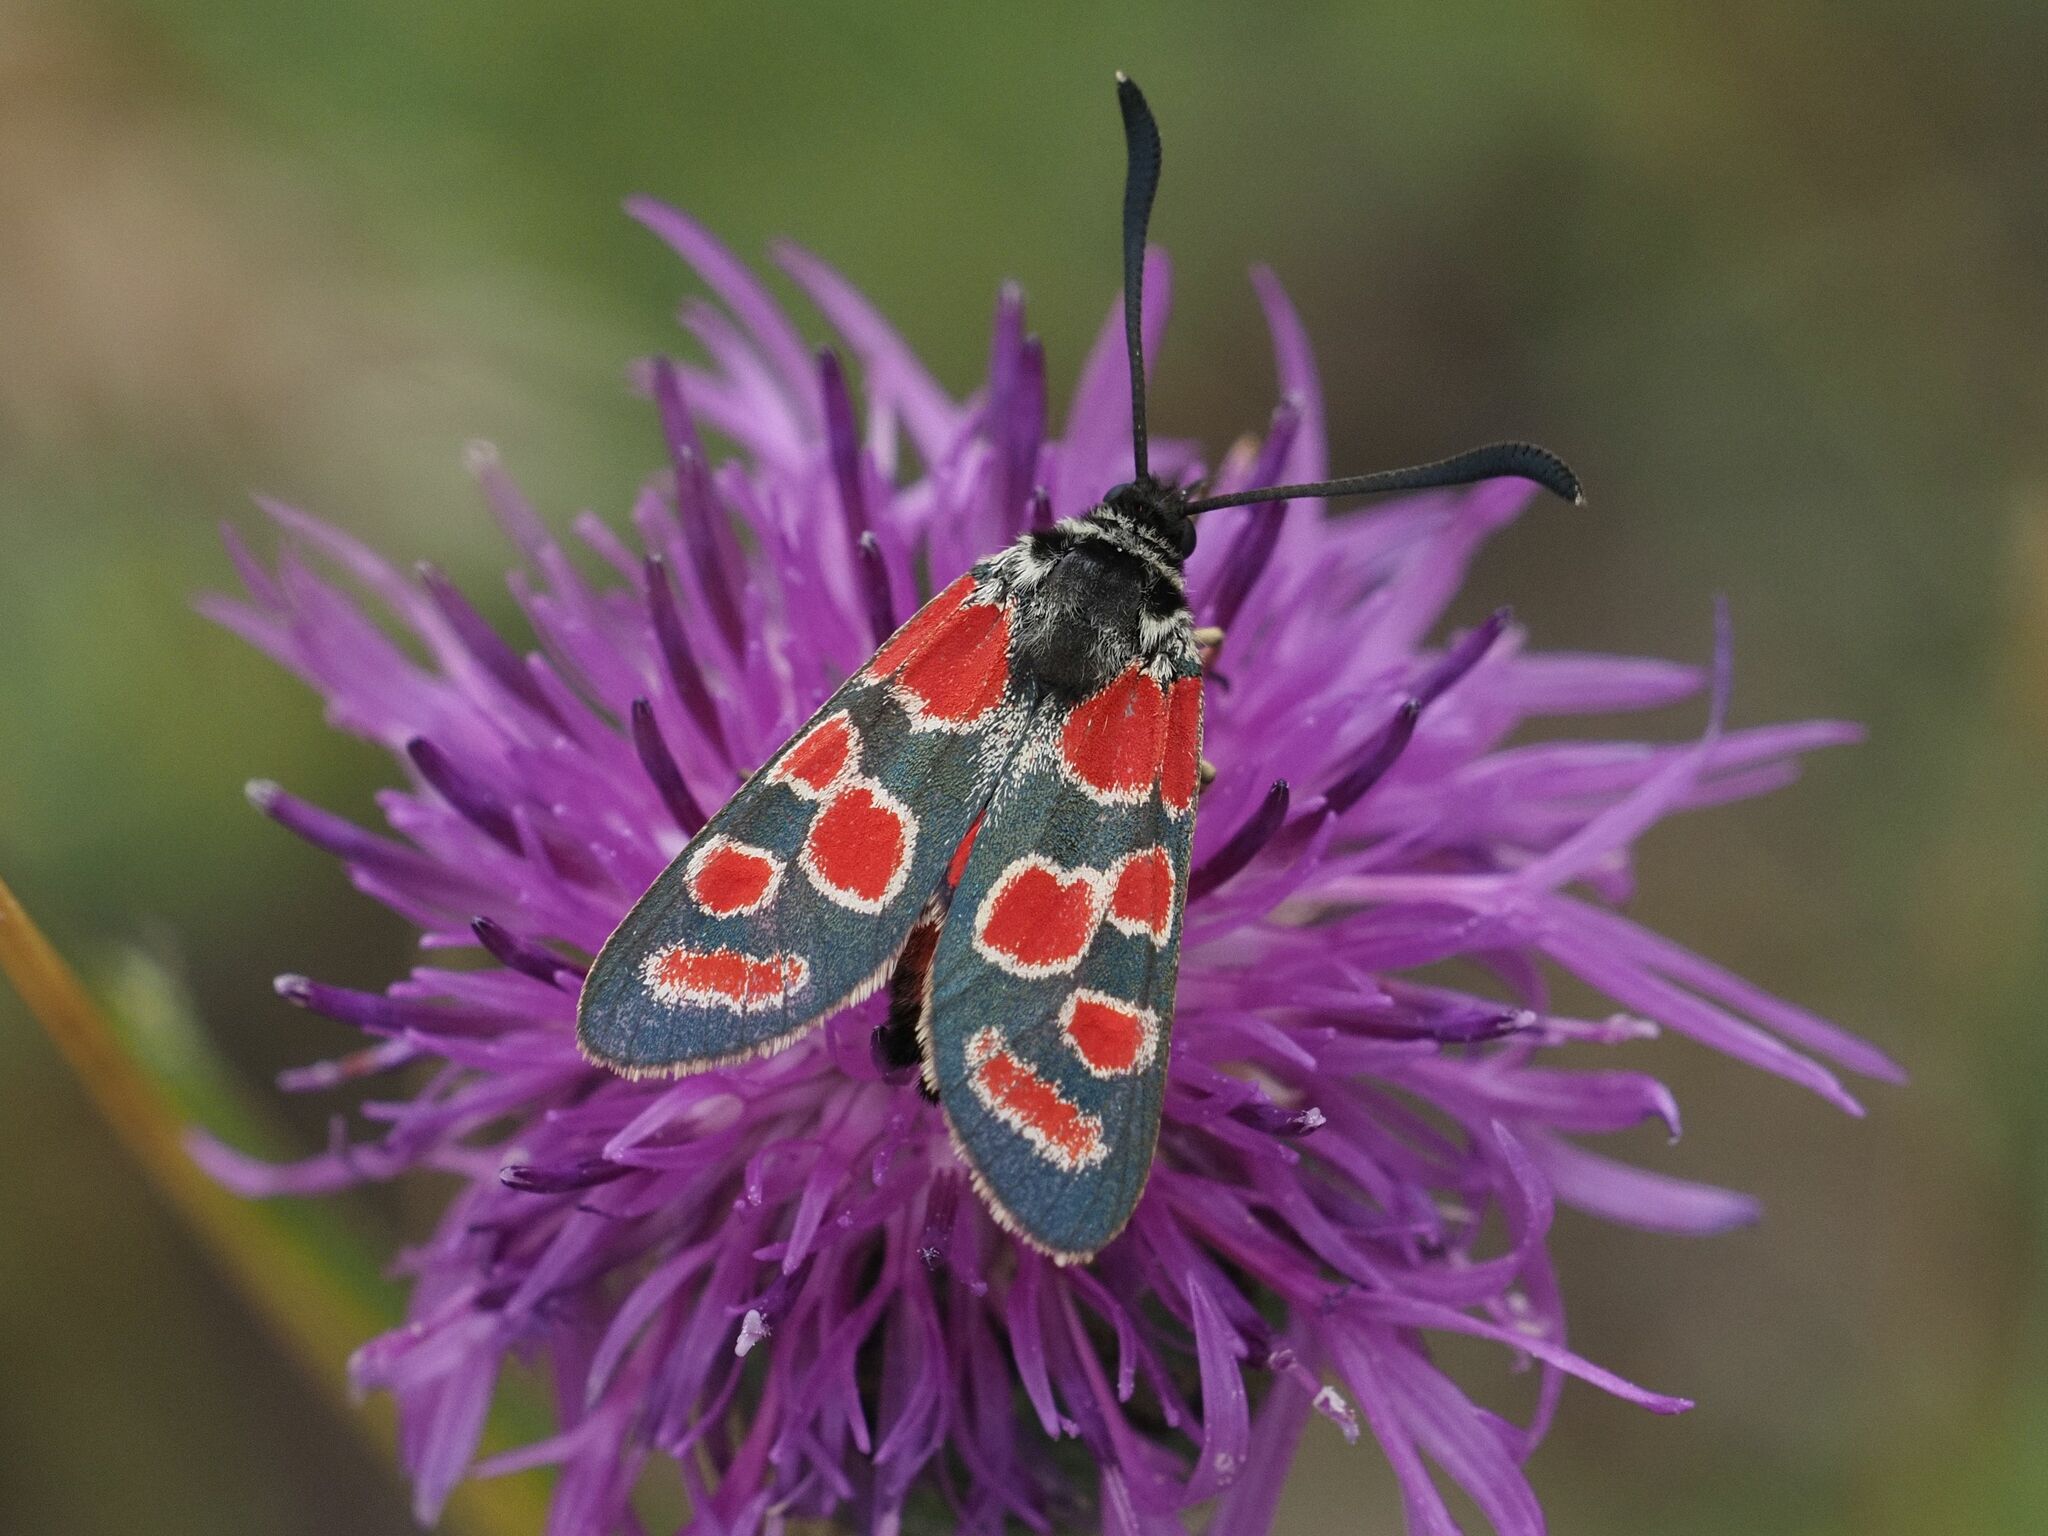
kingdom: Animalia
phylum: Arthropoda
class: Insecta
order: Lepidoptera
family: Zygaenidae
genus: Zygaena
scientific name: Zygaena carniolica
